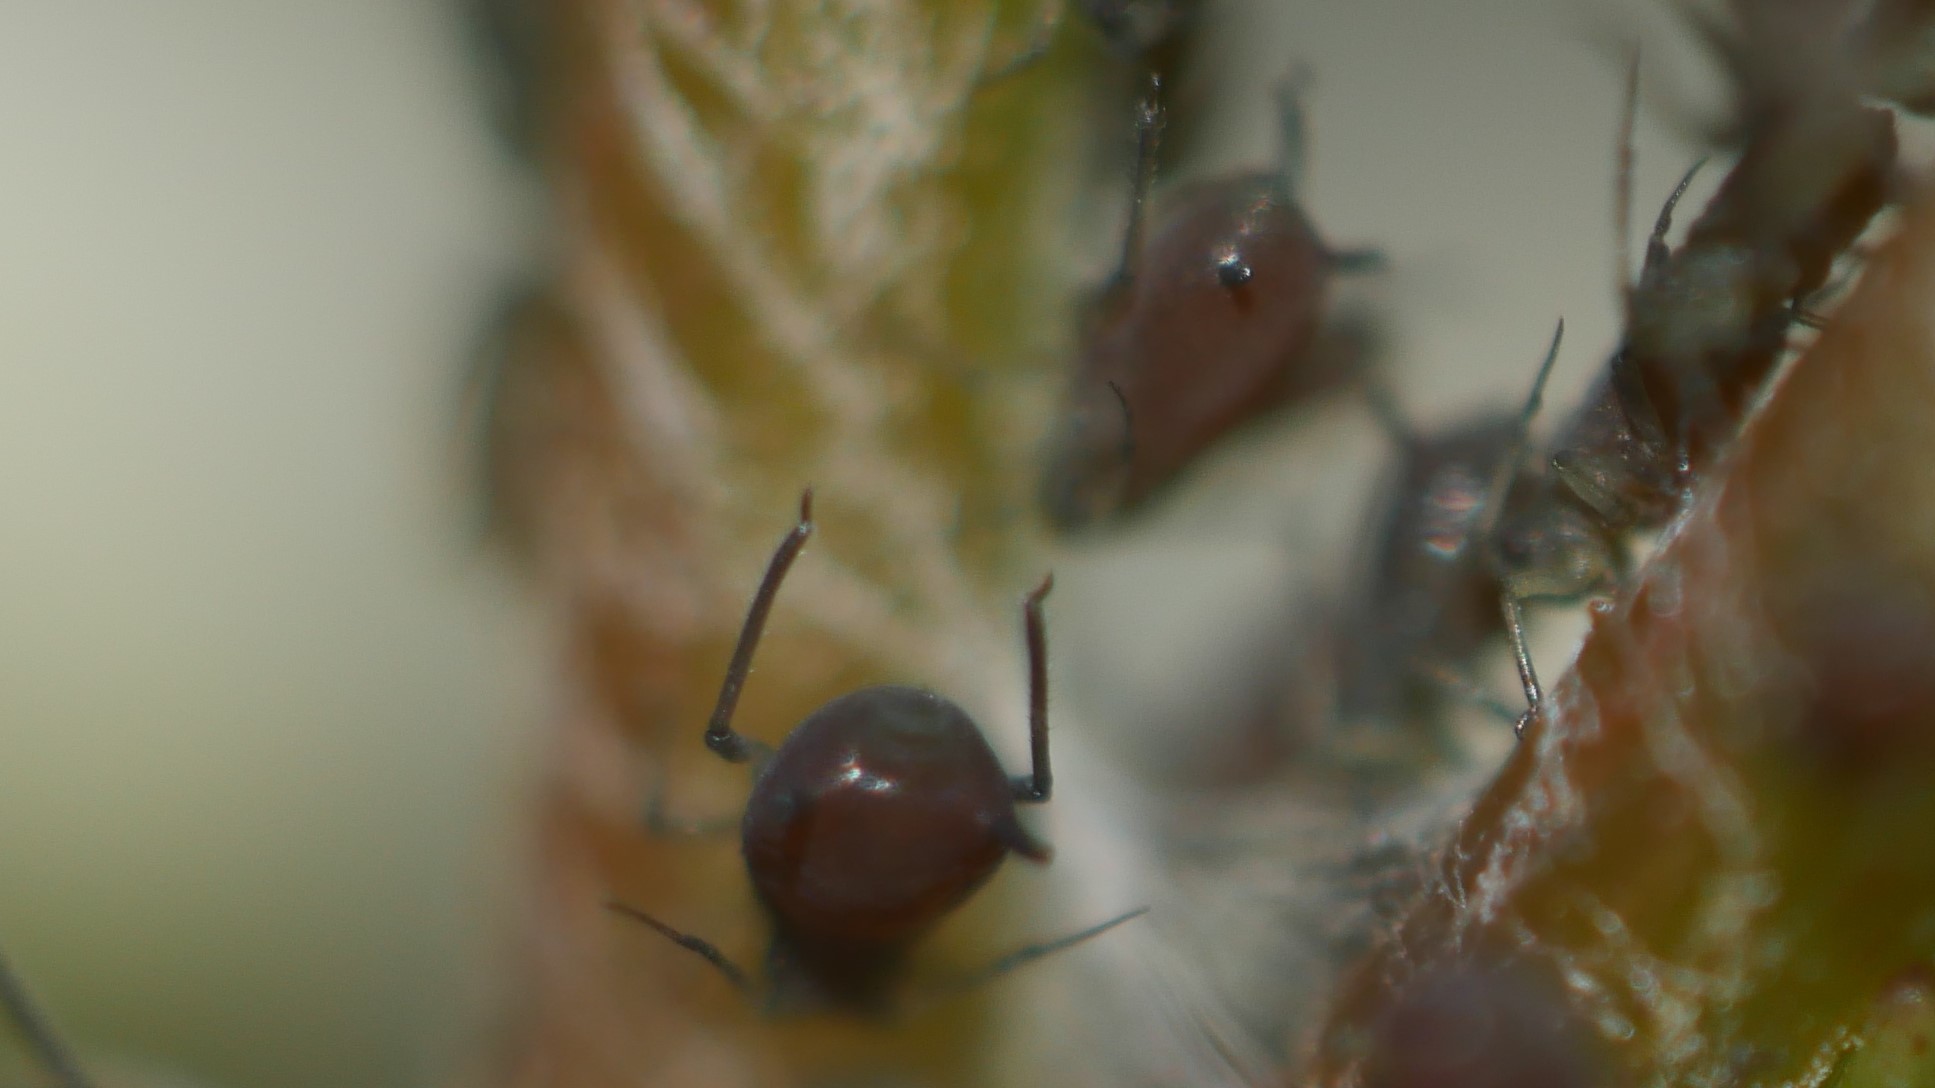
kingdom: Animalia
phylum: Arthropoda
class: Insecta
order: Hemiptera
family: Aphididae
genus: Aphis
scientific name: Aphis illinoisensis
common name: Grapevine aphid
